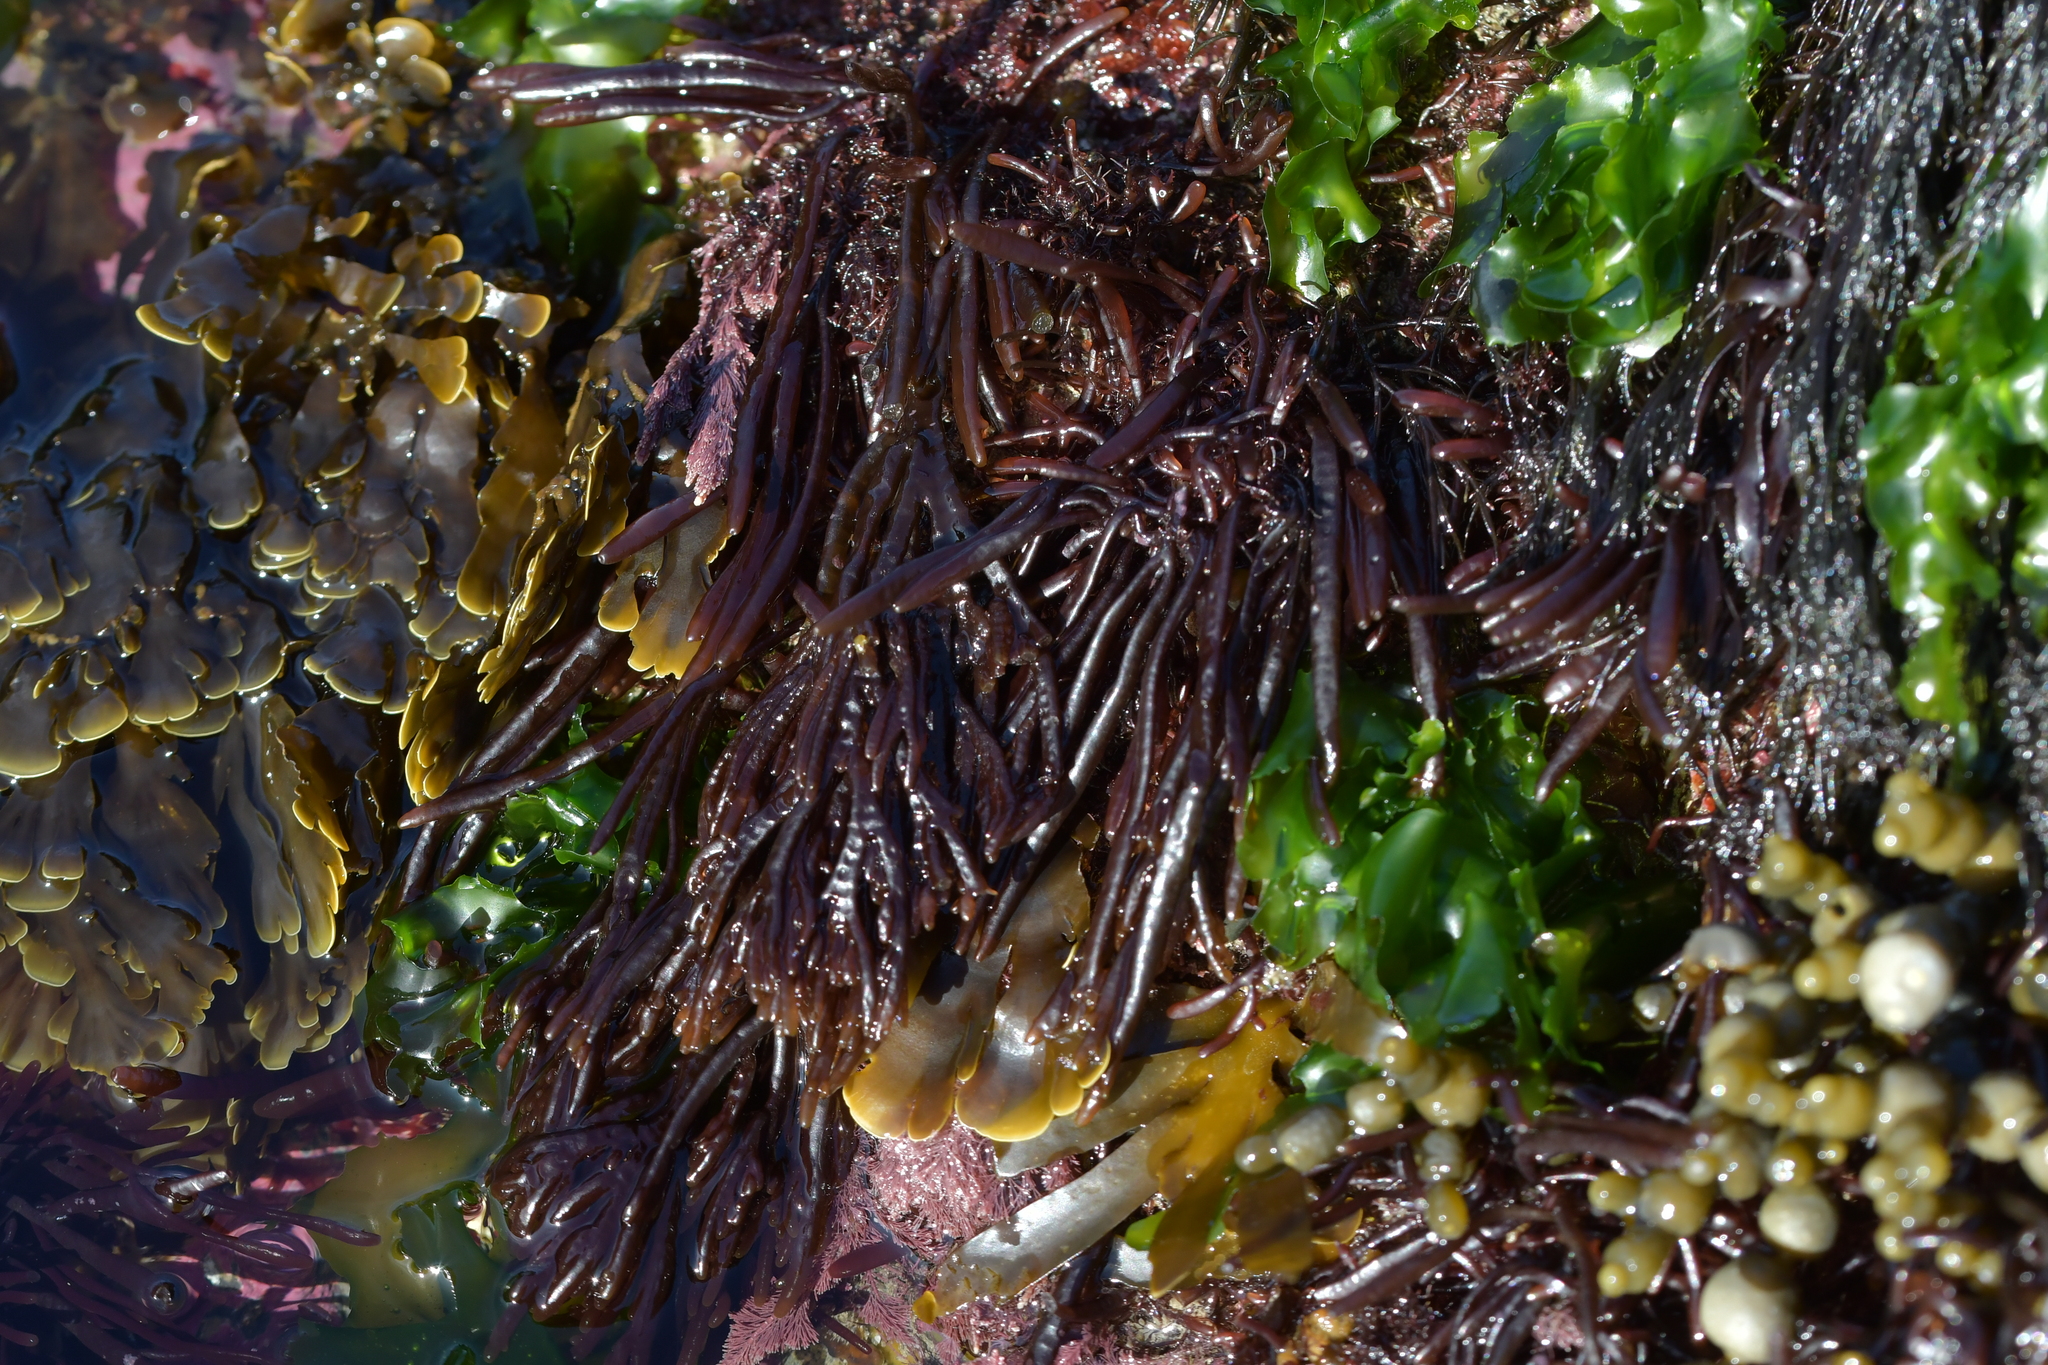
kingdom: Plantae
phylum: Rhodophyta
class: Florideophyceae
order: Rhodymeniales
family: Champiaceae
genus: Champia
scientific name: Champia novae-zelandiae
